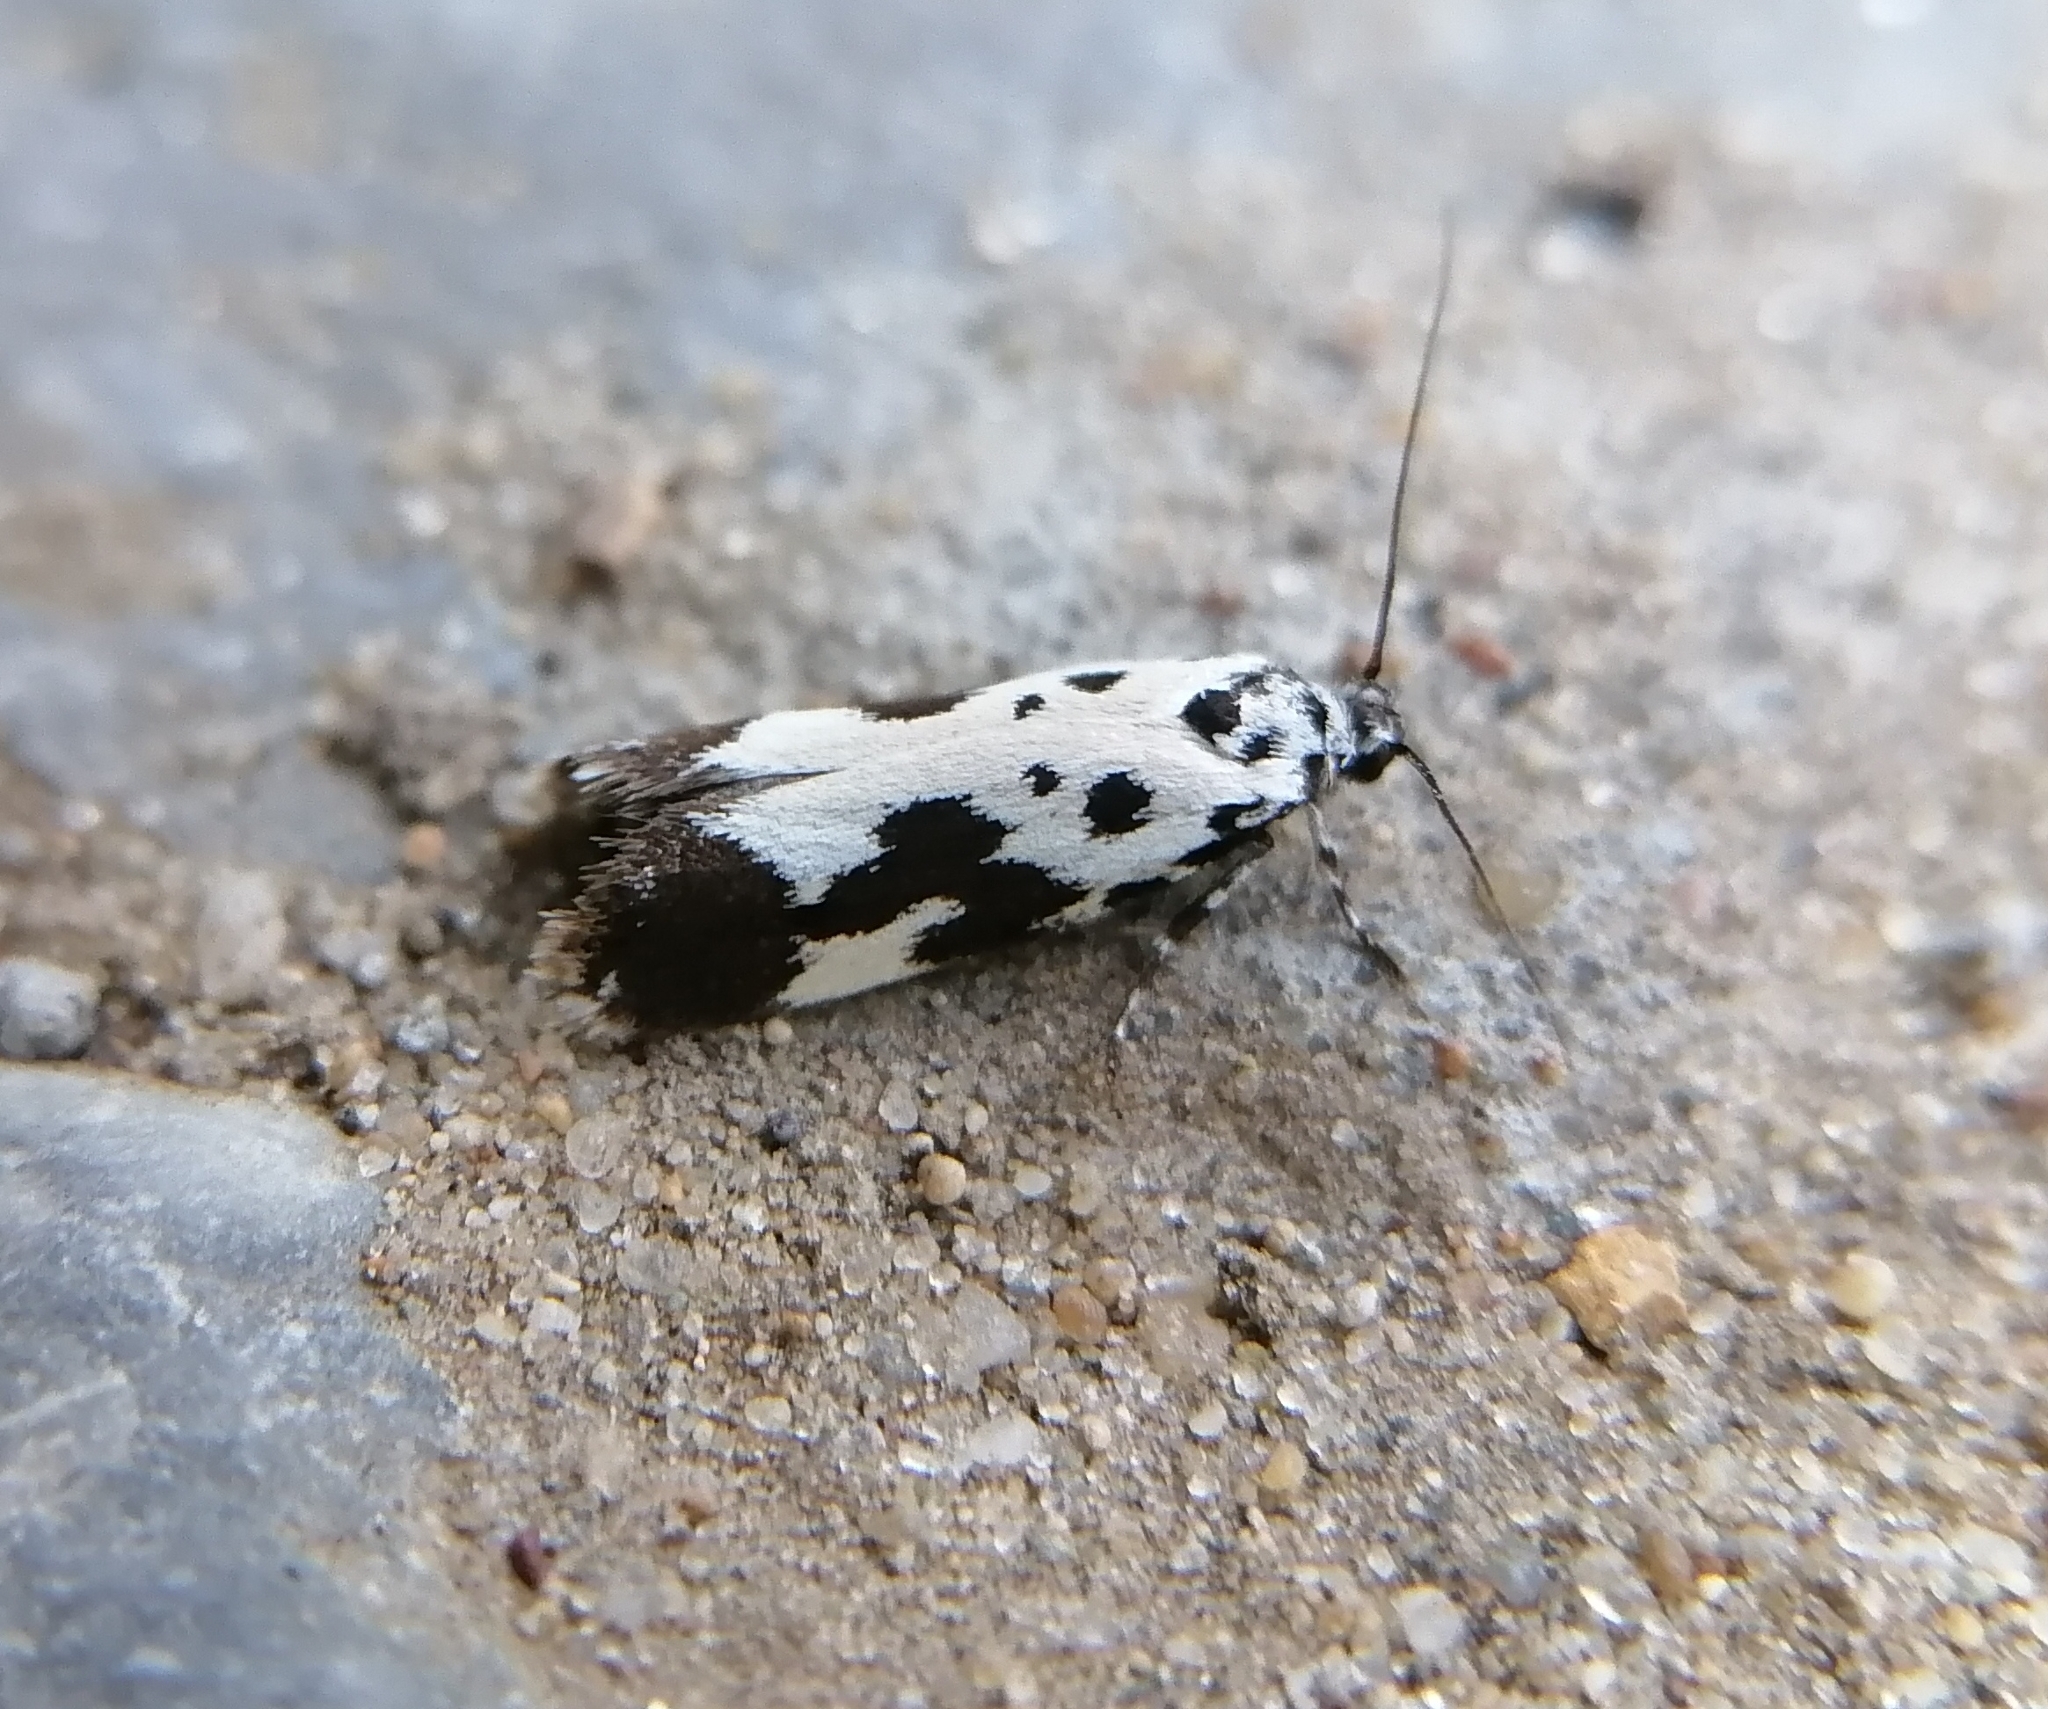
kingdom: Animalia
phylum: Arthropoda
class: Insecta
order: Lepidoptera
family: Ethmiidae
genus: Ethmia
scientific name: Ethmia quadrillella
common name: Comfrey ermel
